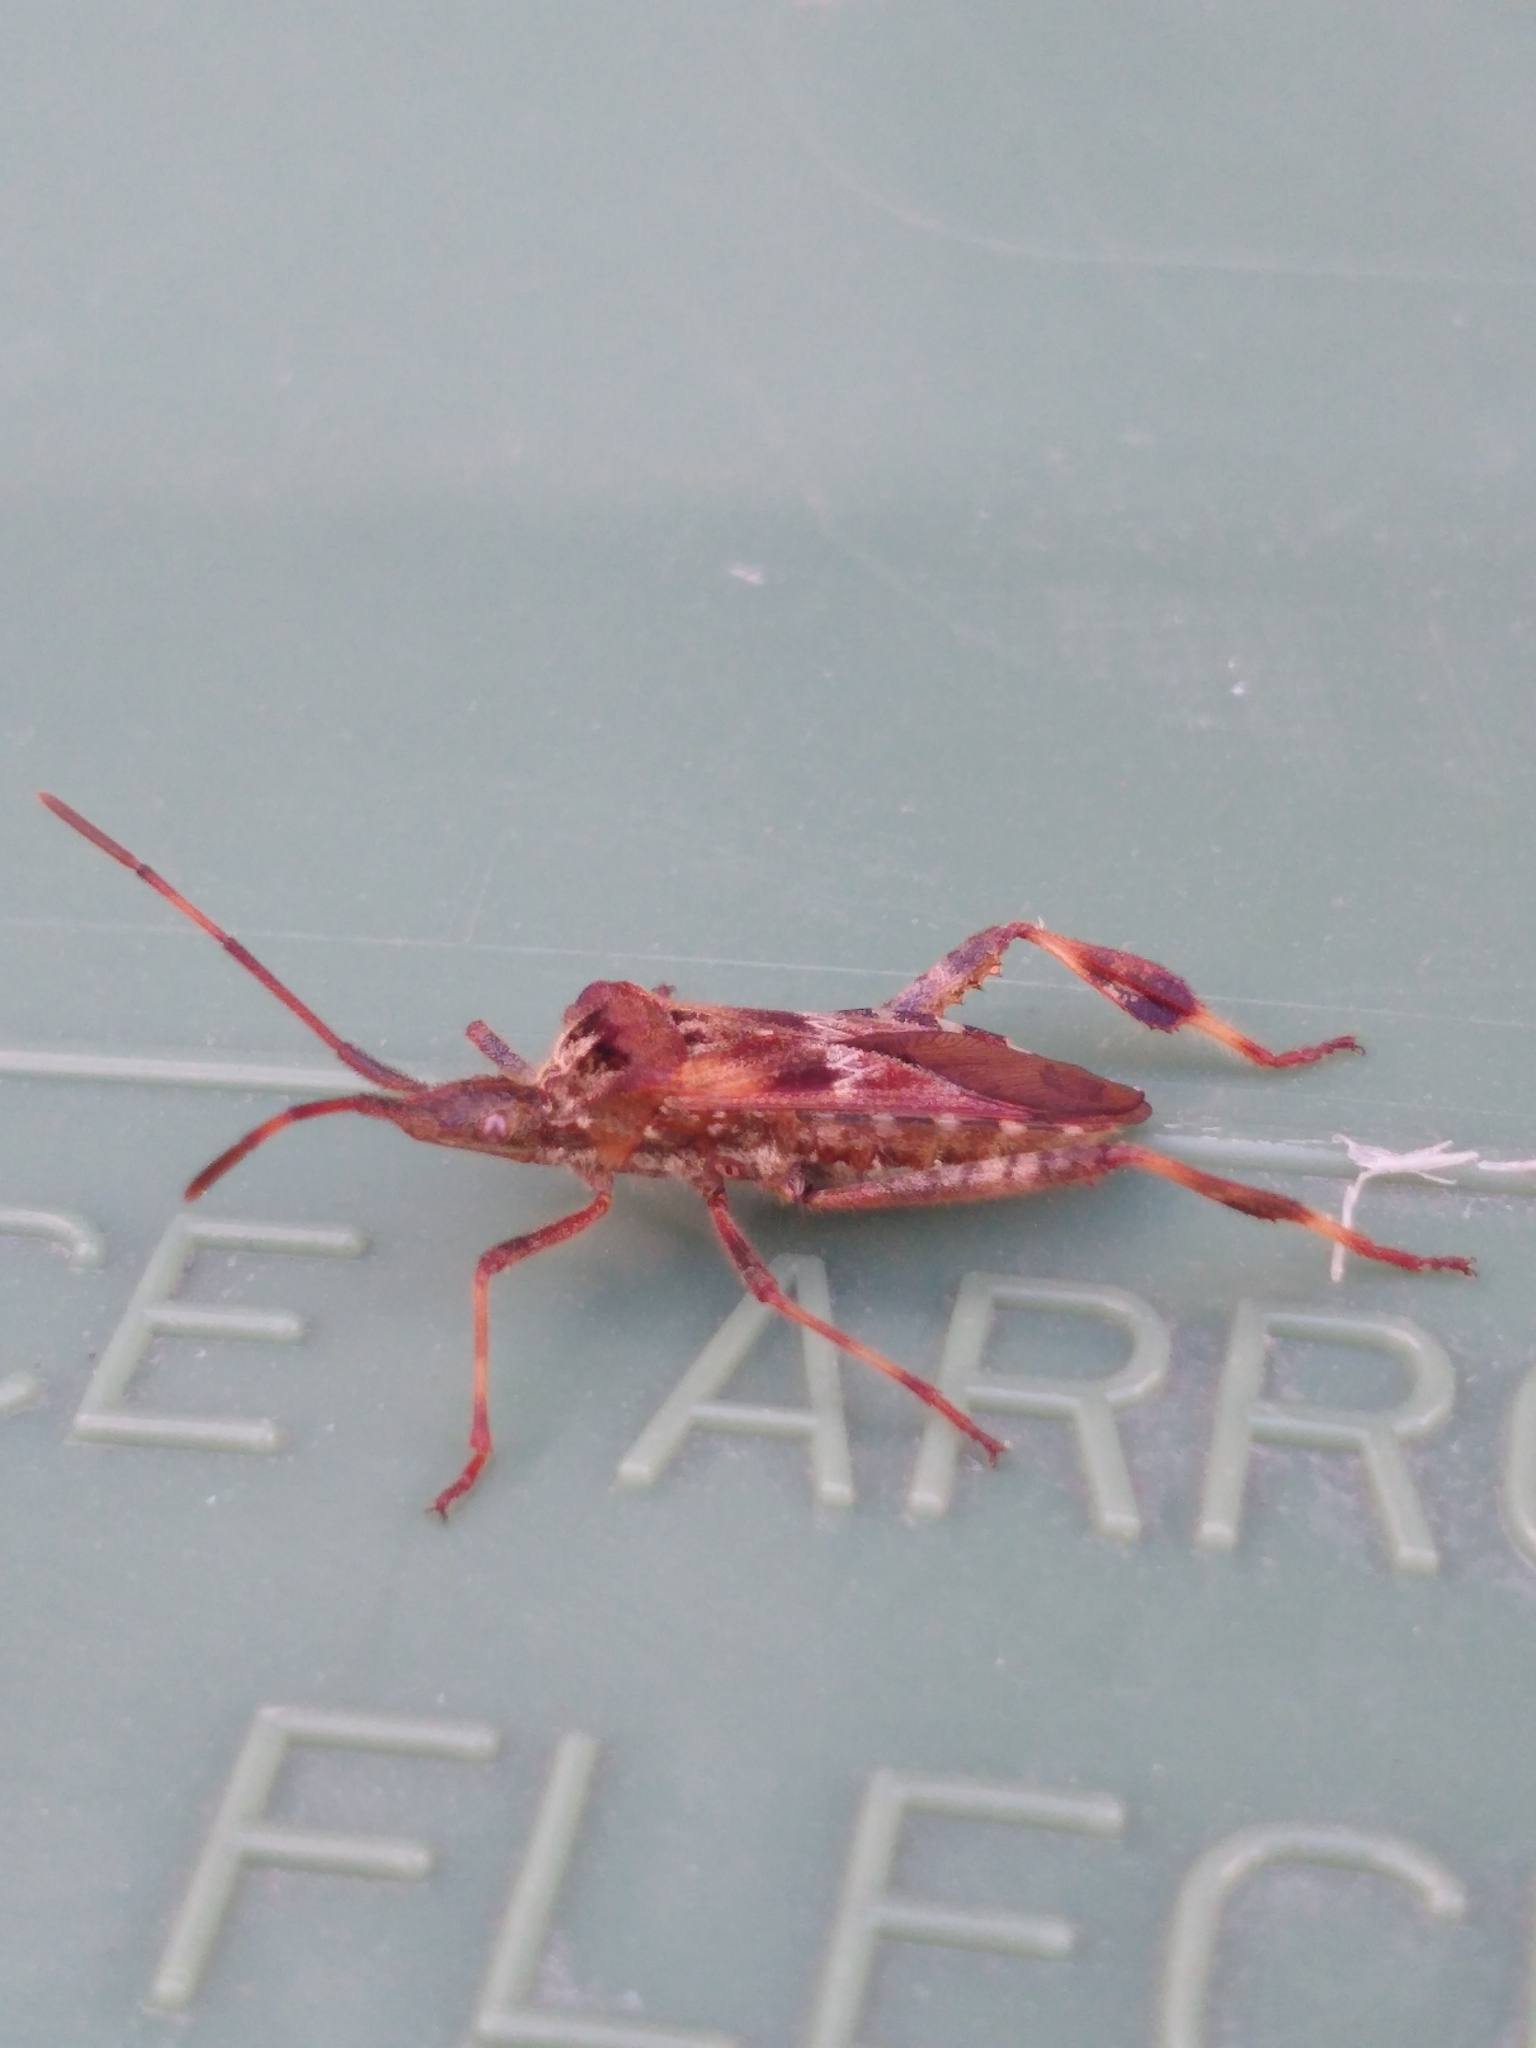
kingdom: Animalia
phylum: Arthropoda
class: Insecta
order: Hemiptera
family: Coreidae
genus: Leptoglossus
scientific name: Leptoglossus occidentalis
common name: Western conifer-seed bug
